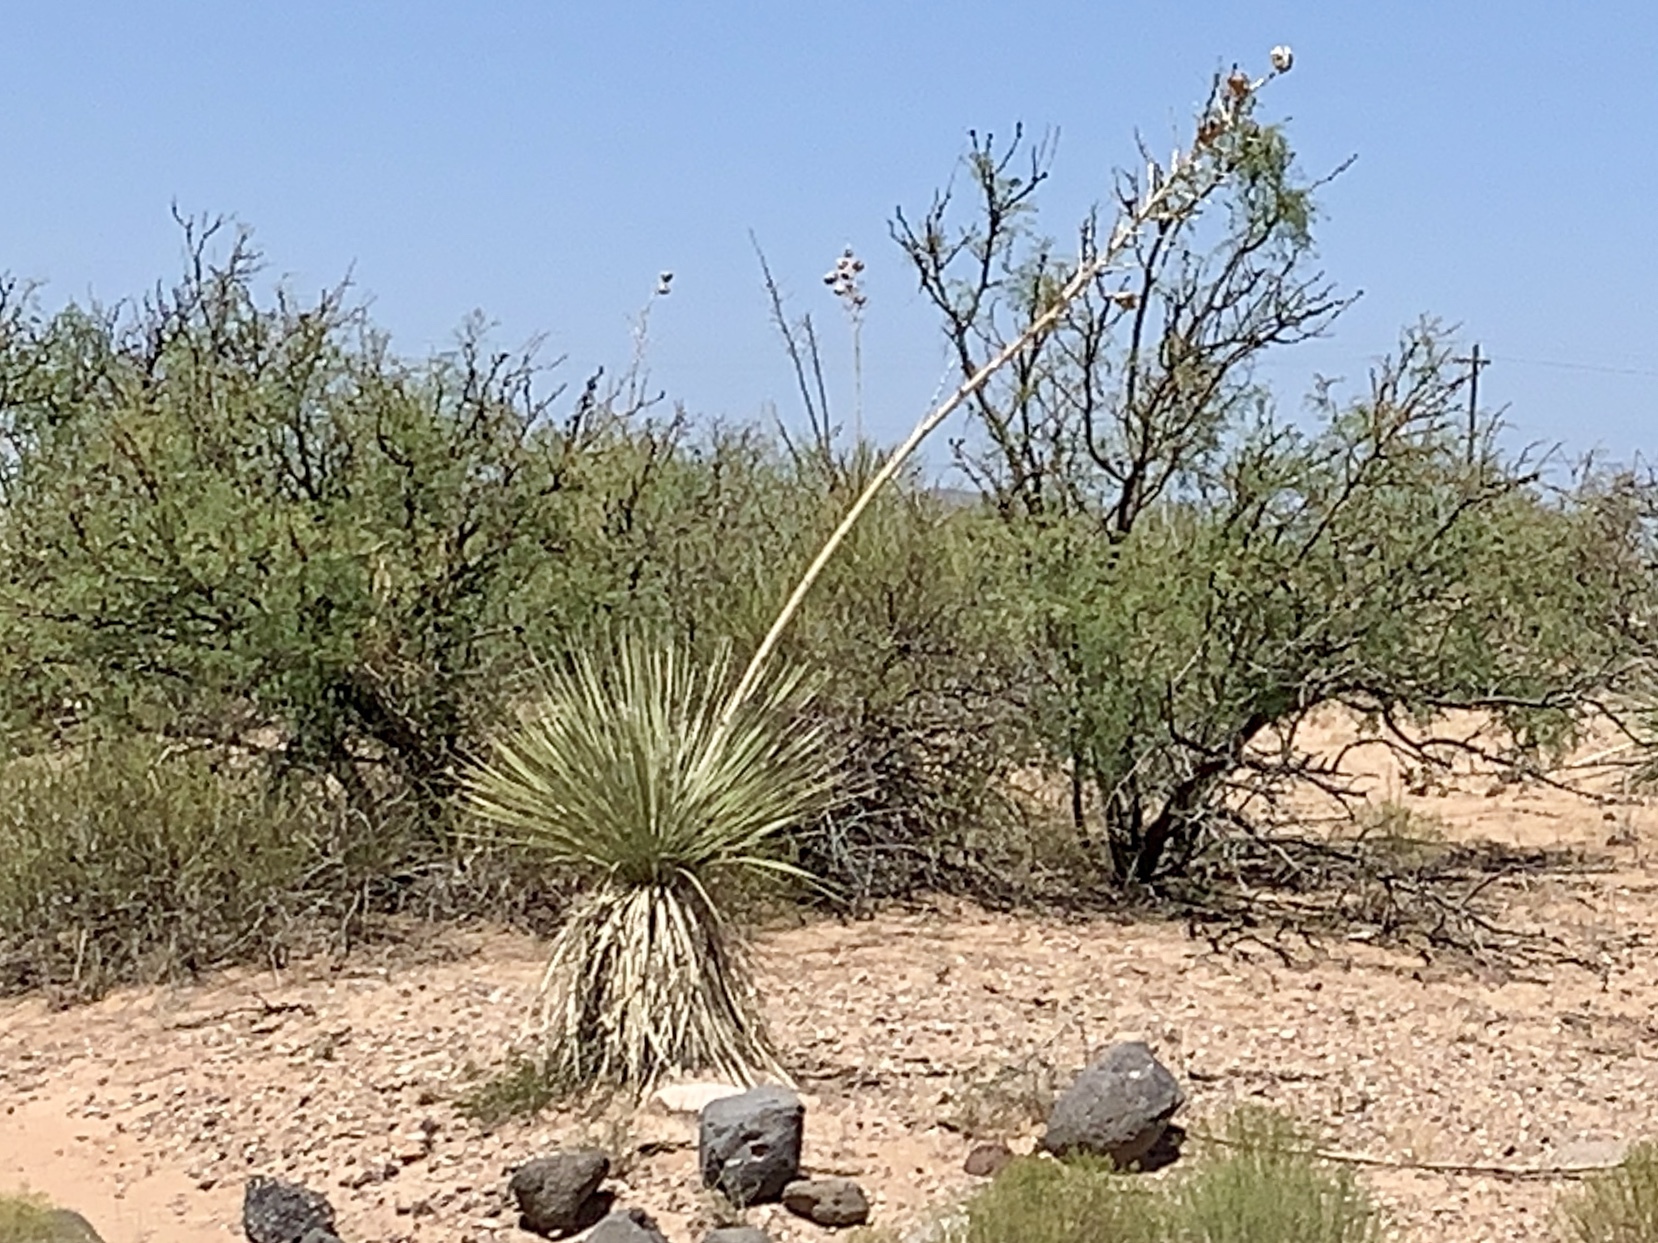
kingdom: Plantae
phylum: Tracheophyta
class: Liliopsida
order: Asparagales
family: Asparagaceae
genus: Yucca
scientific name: Yucca elata
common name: Palmella
